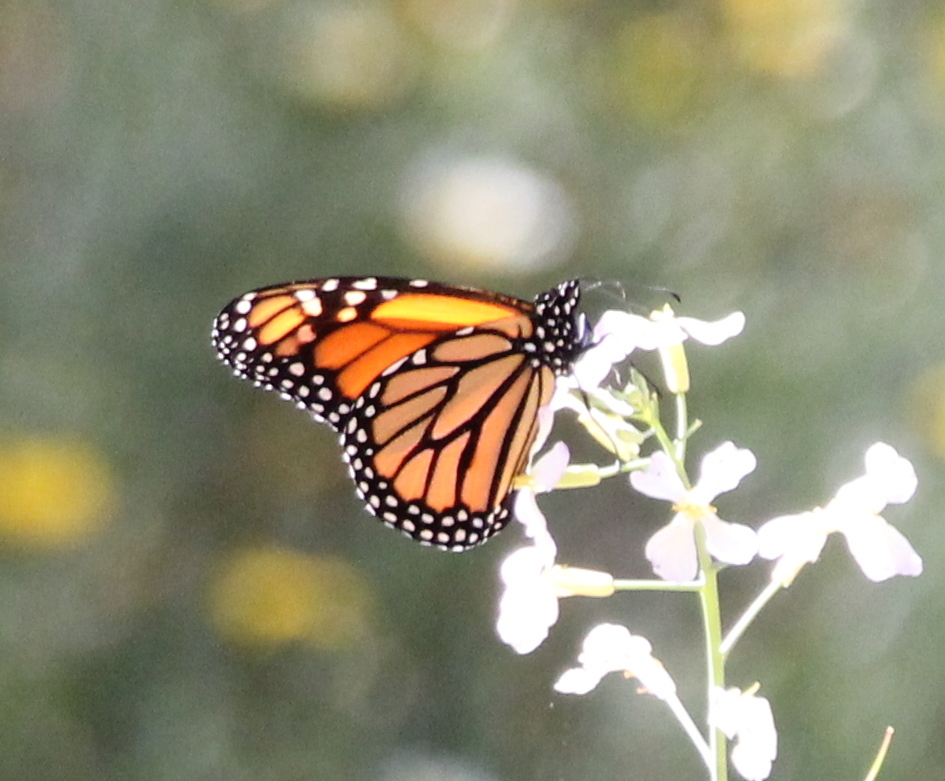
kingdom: Animalia
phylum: Arthropoda
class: Insecta
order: Lepidoptera
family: Nymphalidae
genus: Danaus
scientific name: Danaus plexippus
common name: Monarch
